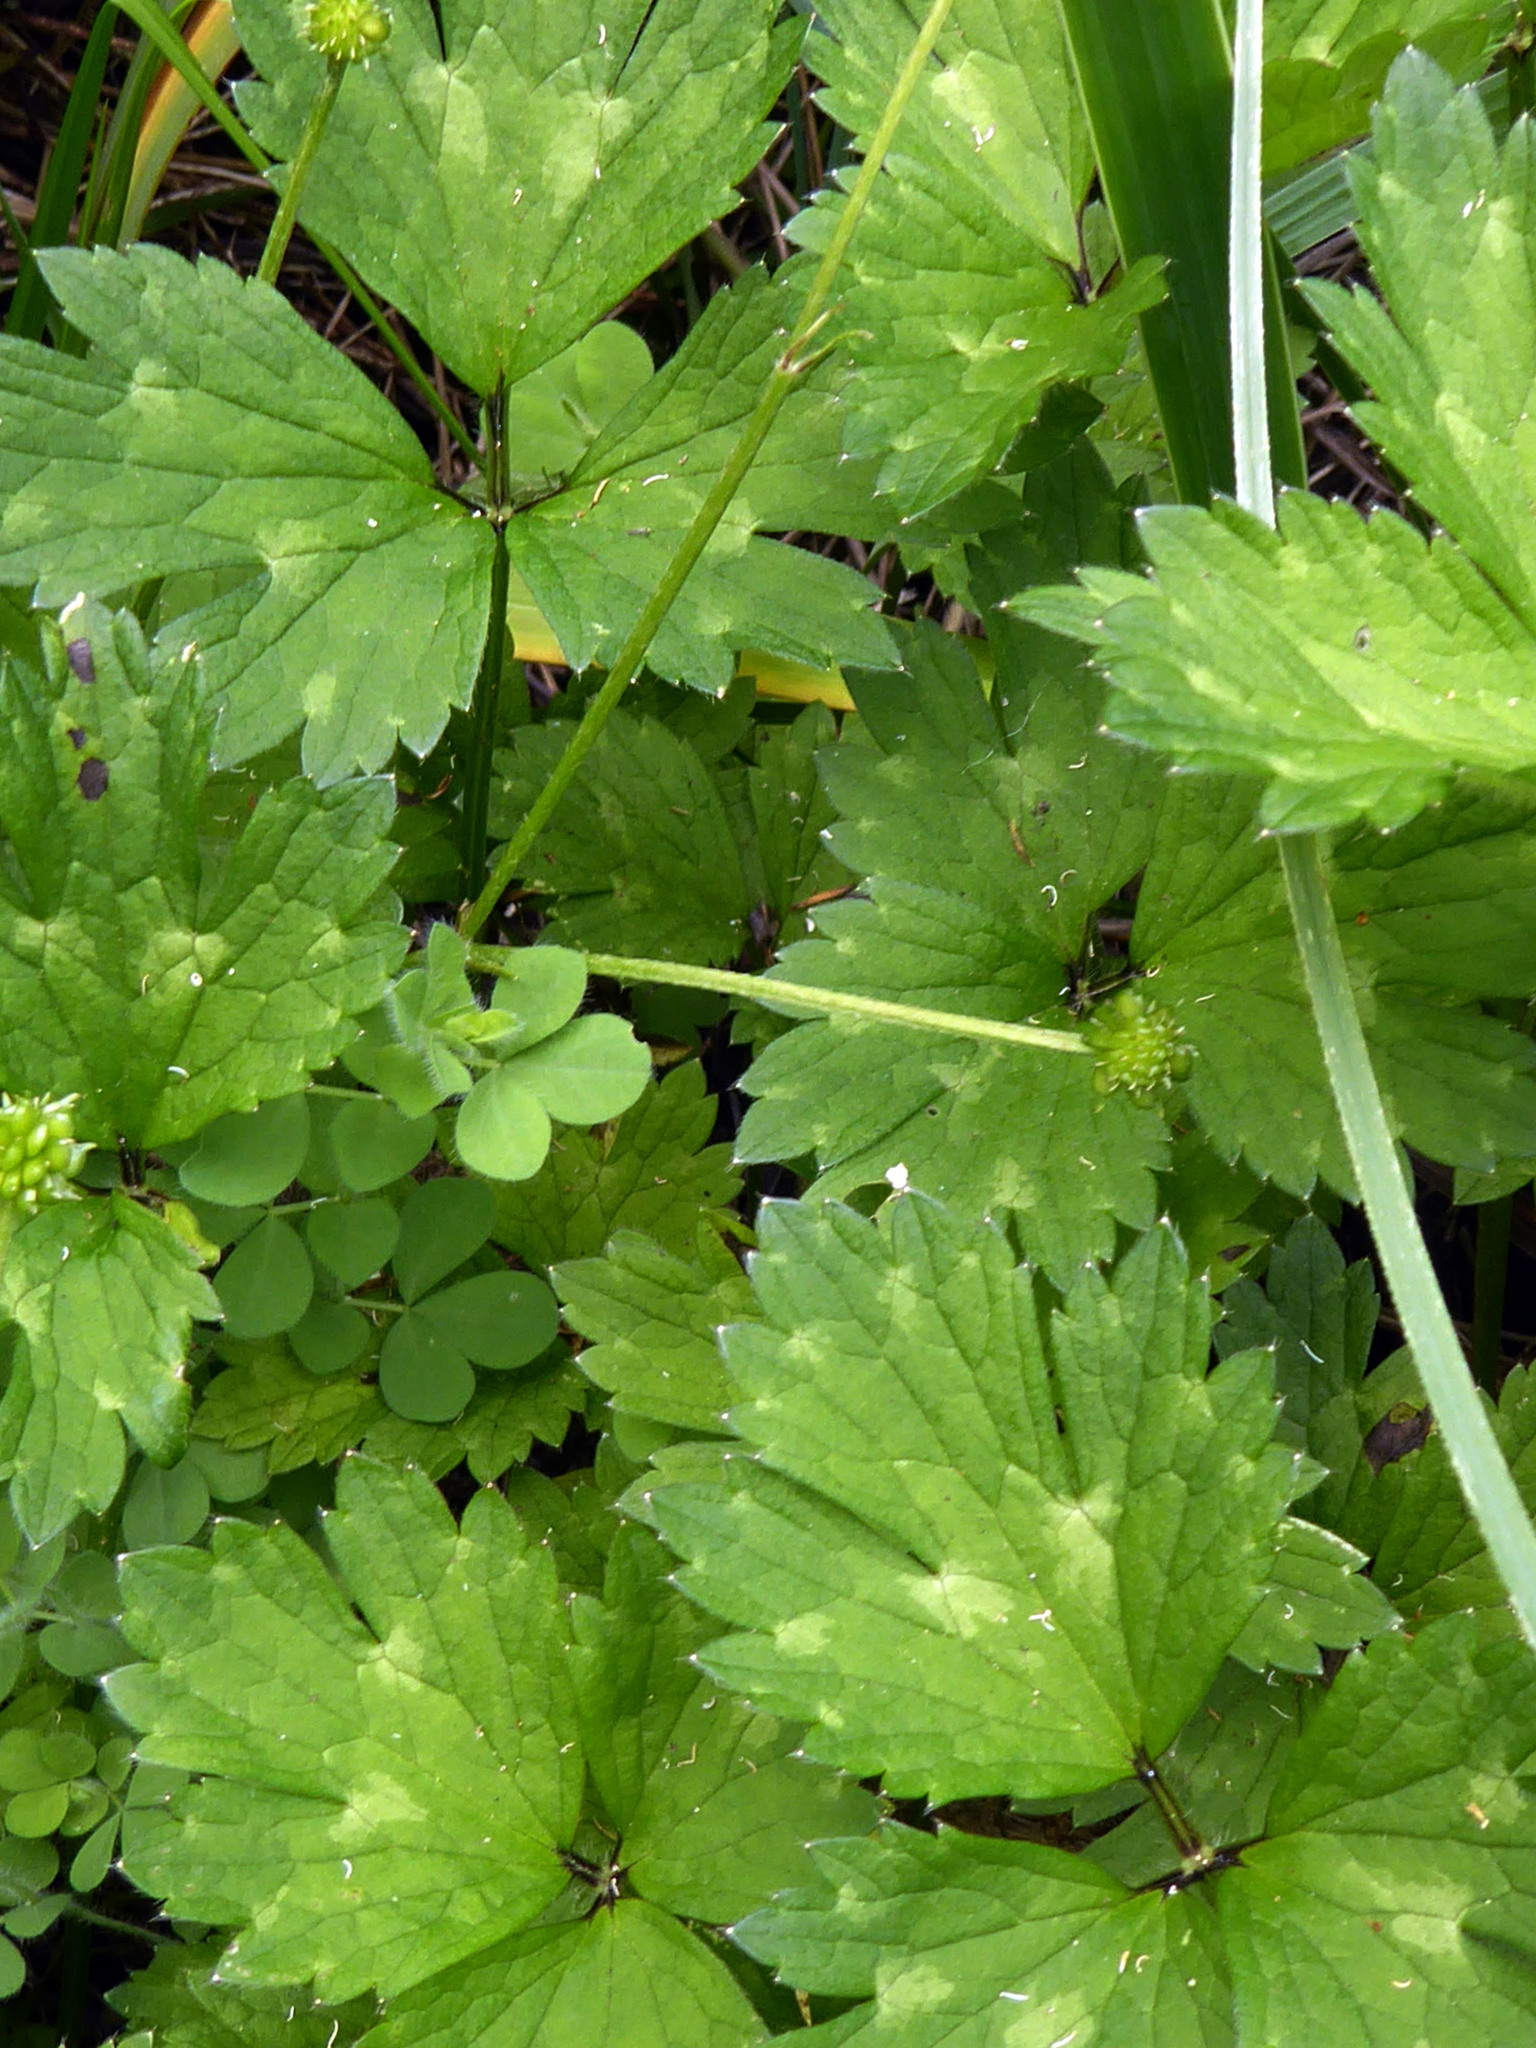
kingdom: Plantae
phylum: Tracheophyta
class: Magnoliopsida
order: Ranunculales
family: Ranunculaceae
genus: Ranunculus
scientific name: Ranunculus repens
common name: Creeping buttercup
